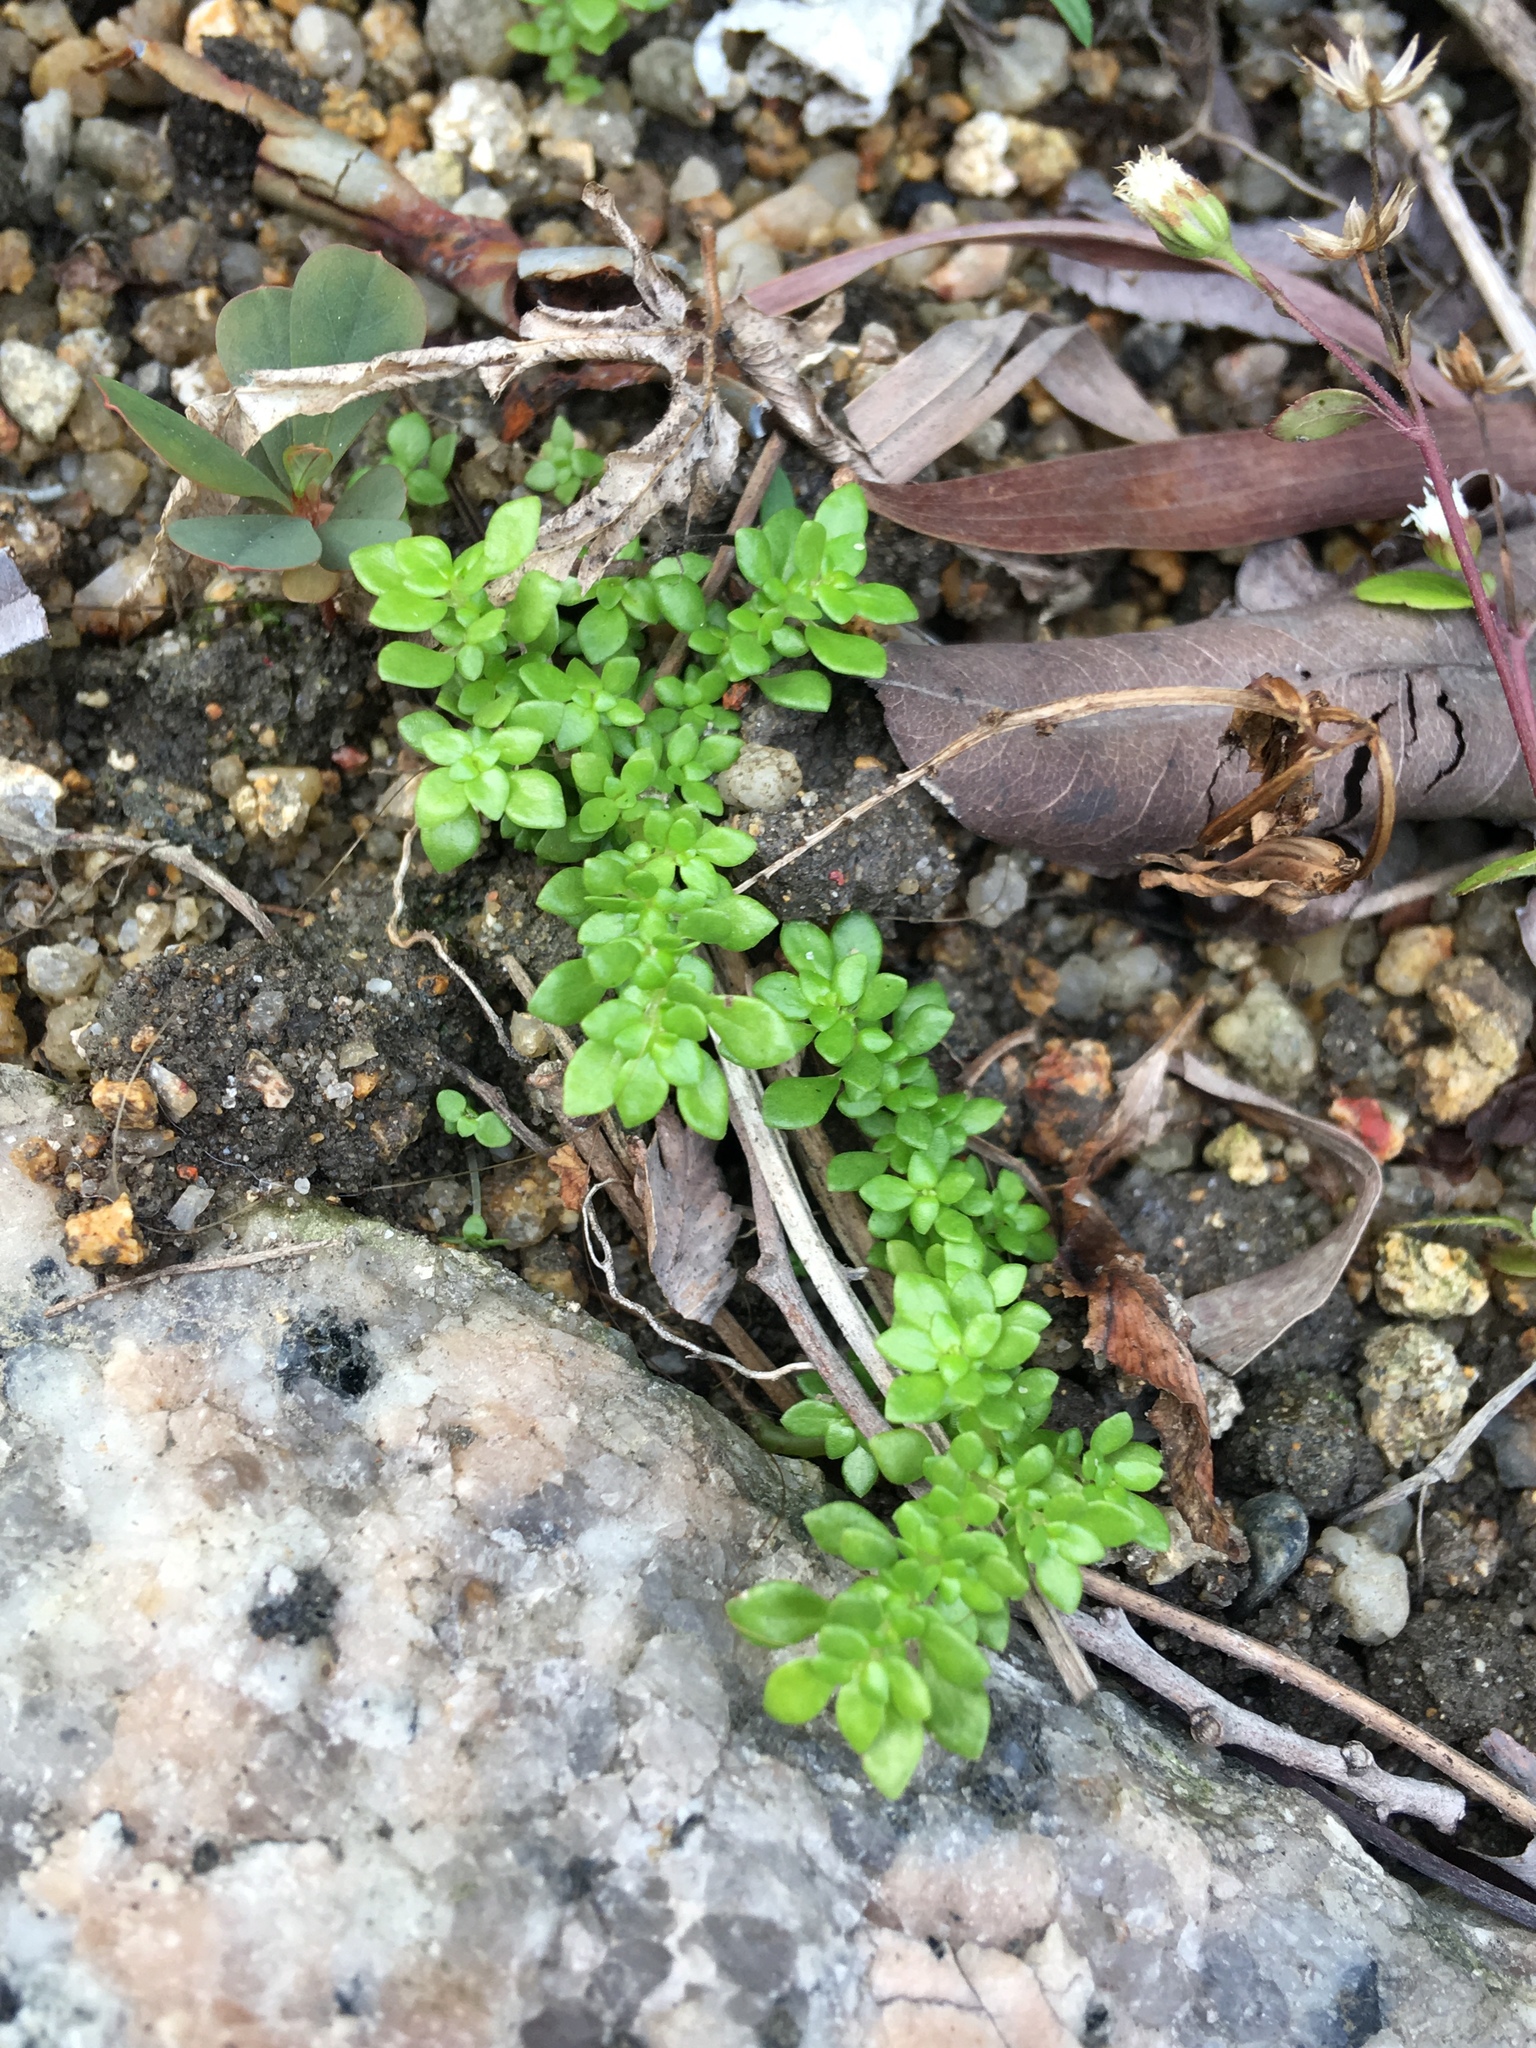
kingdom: Plantae
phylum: Tracheophyta
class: Magnoliopsida
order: Rosales
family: Urticaceae
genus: Pilea
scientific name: Pilea microphylla
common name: Artillery-plant
